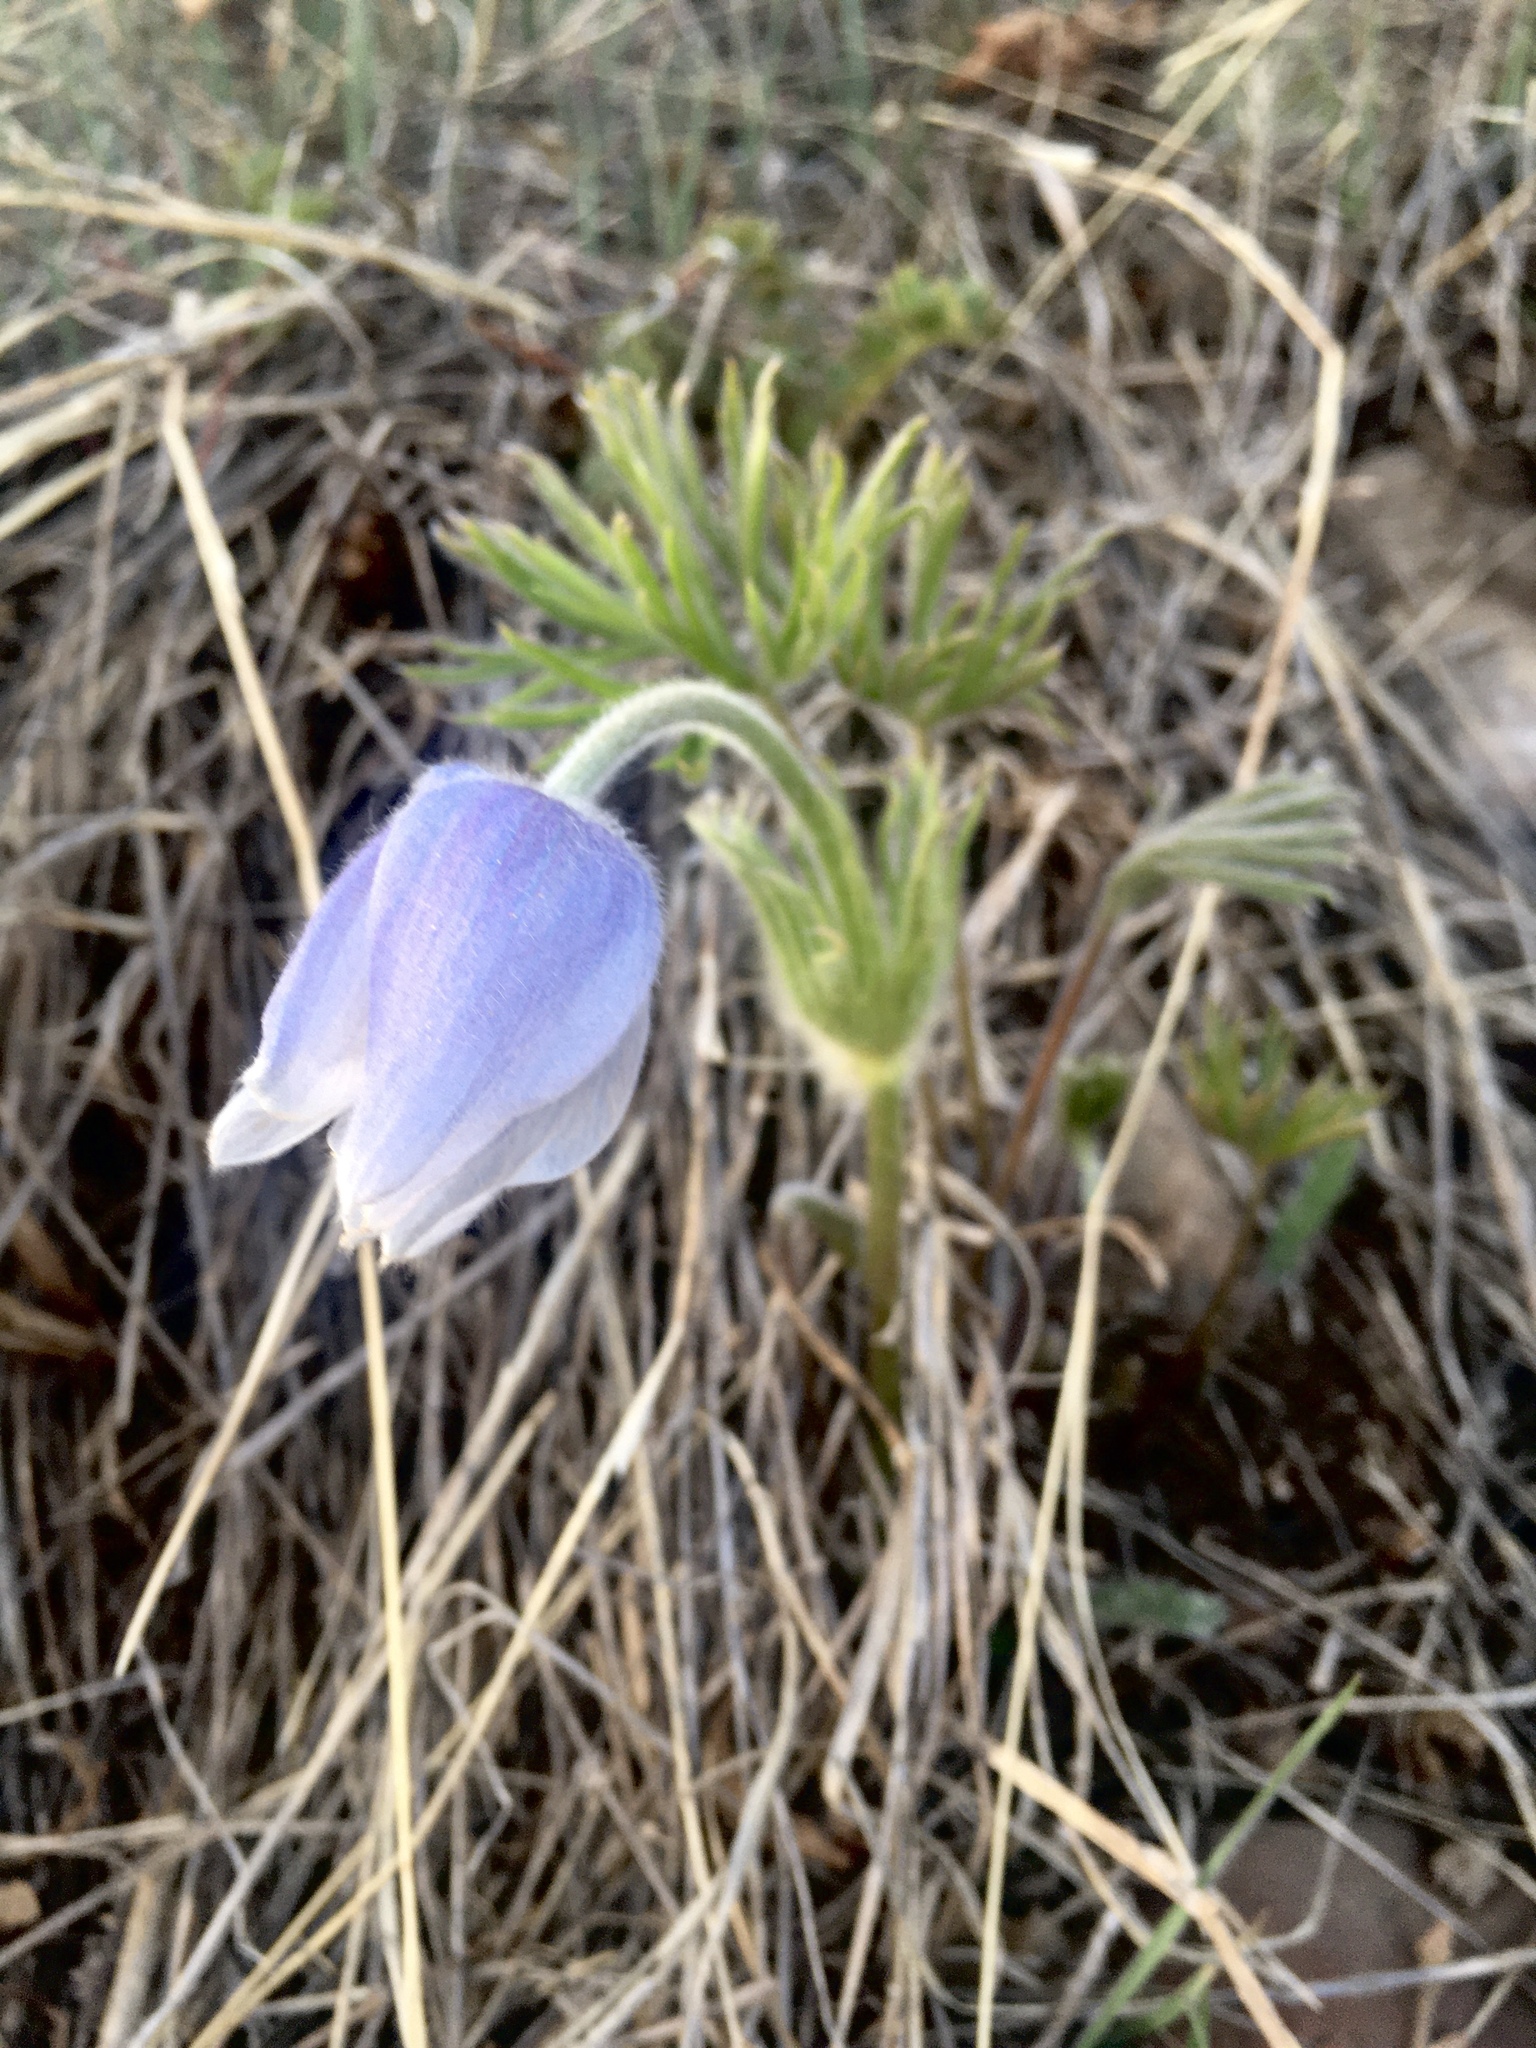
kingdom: Plantae
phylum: Tracheophyta
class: Magnoliopsida
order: Ranunculales
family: Ranunculaceae
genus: Pulsatilla
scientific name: Pulsatilla nuttalliana
